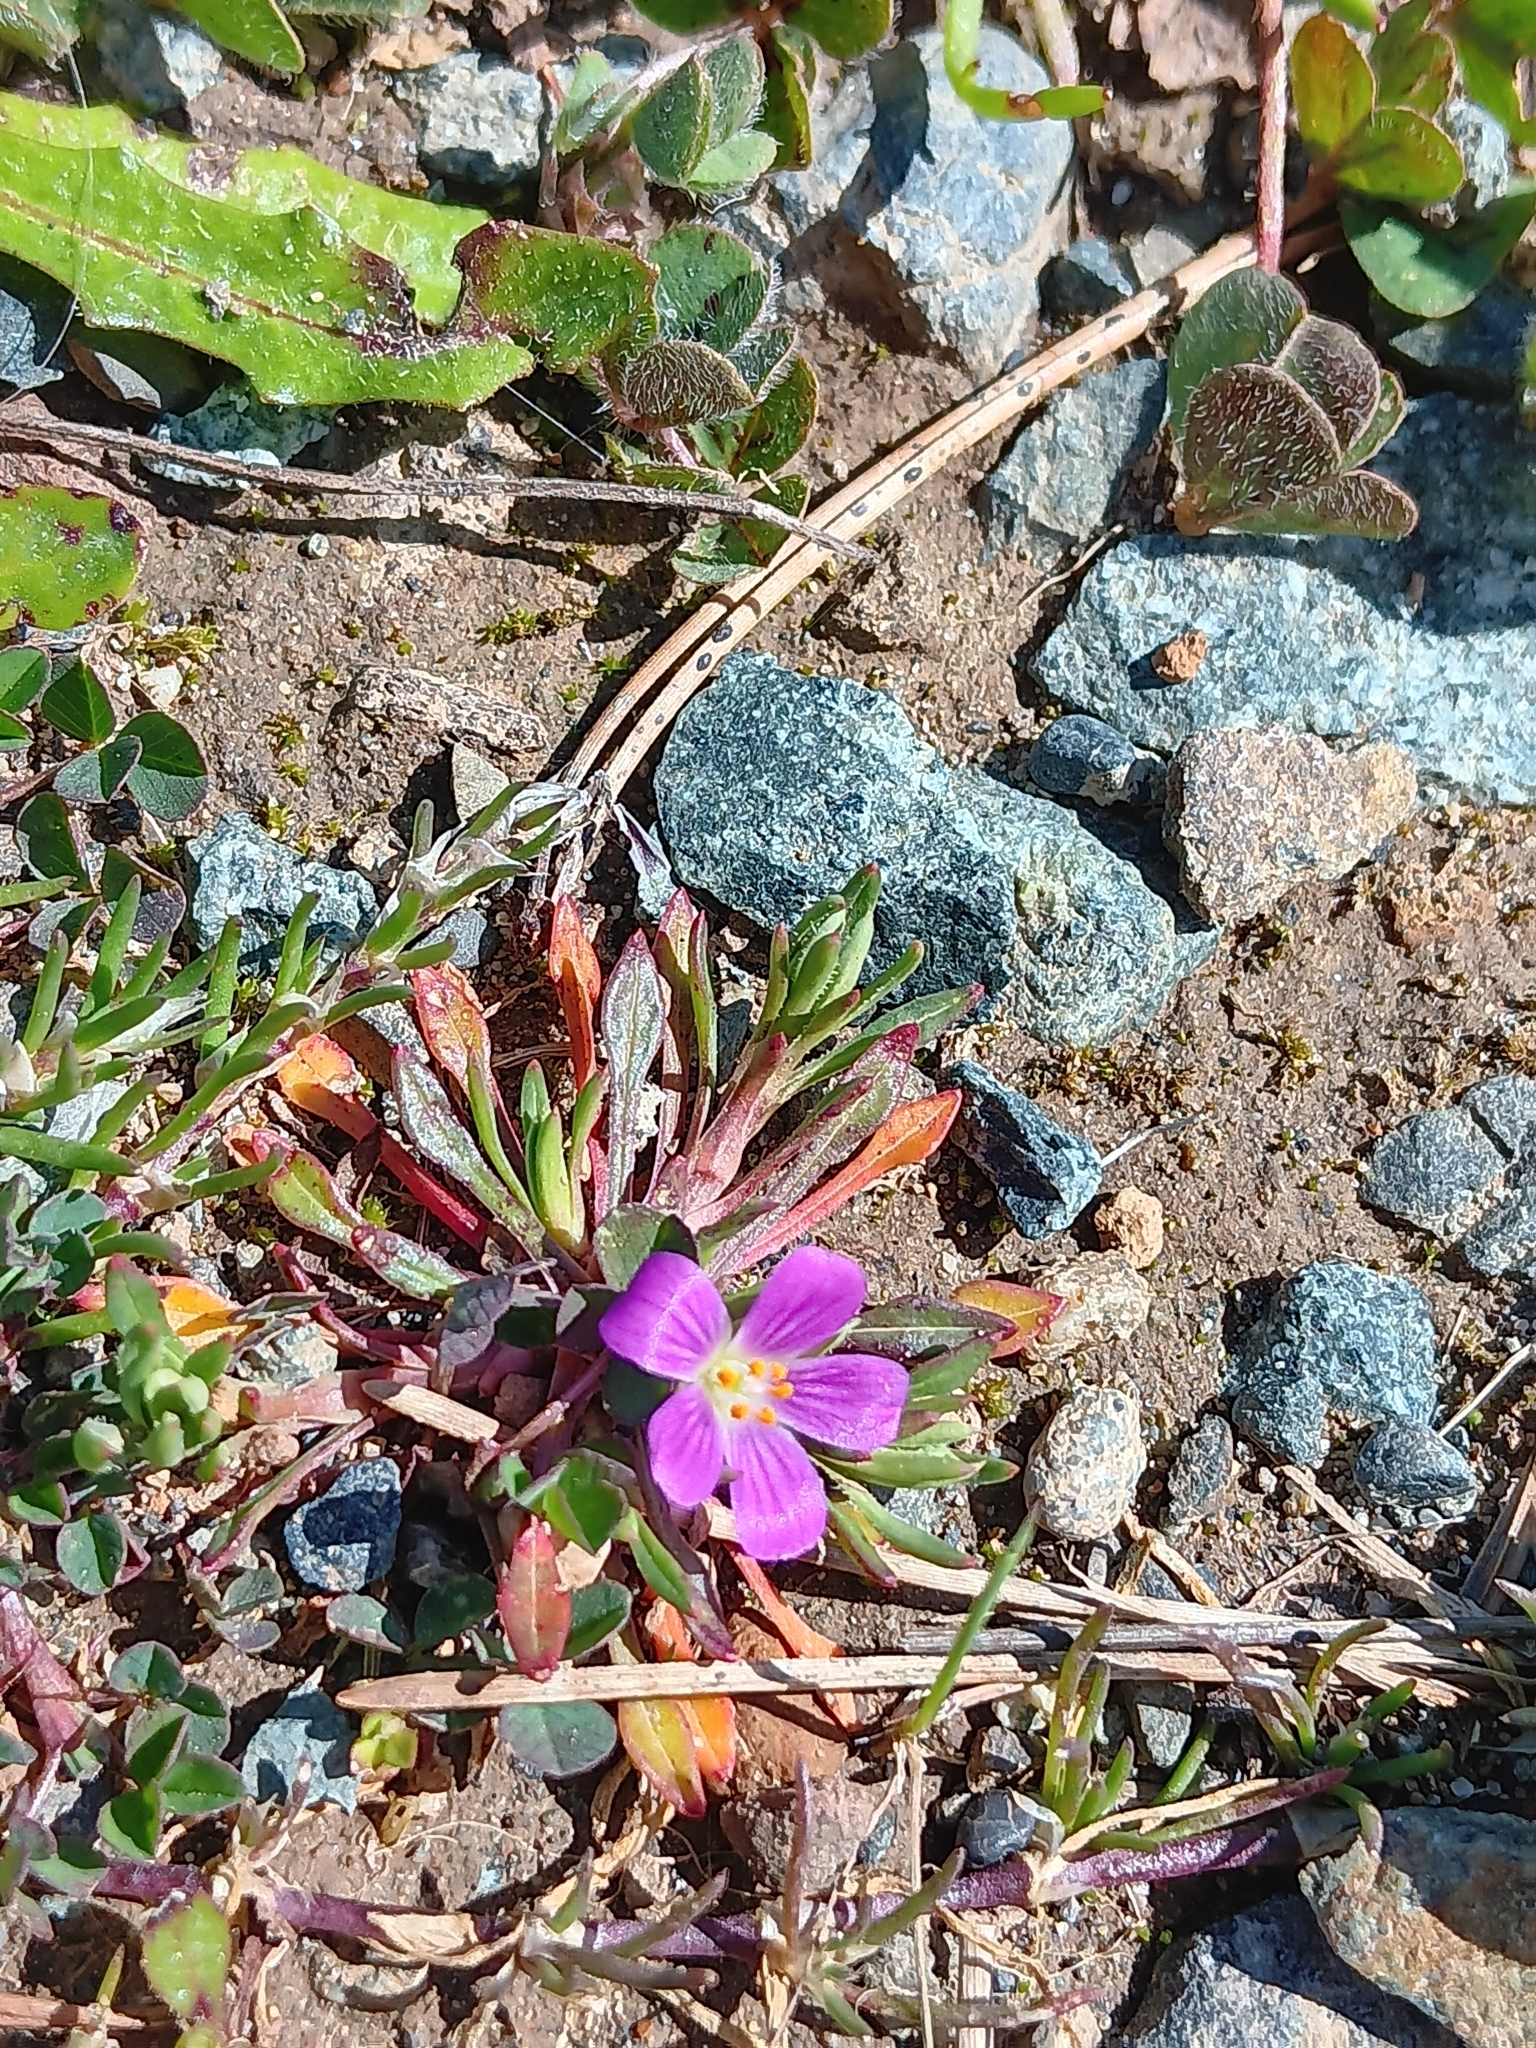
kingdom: Plantae
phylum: Tracheophyta
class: Magnoliopsida
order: Caryophyllales
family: Montiaceae
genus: Calandrinia
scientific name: Calandrinia menziesii
